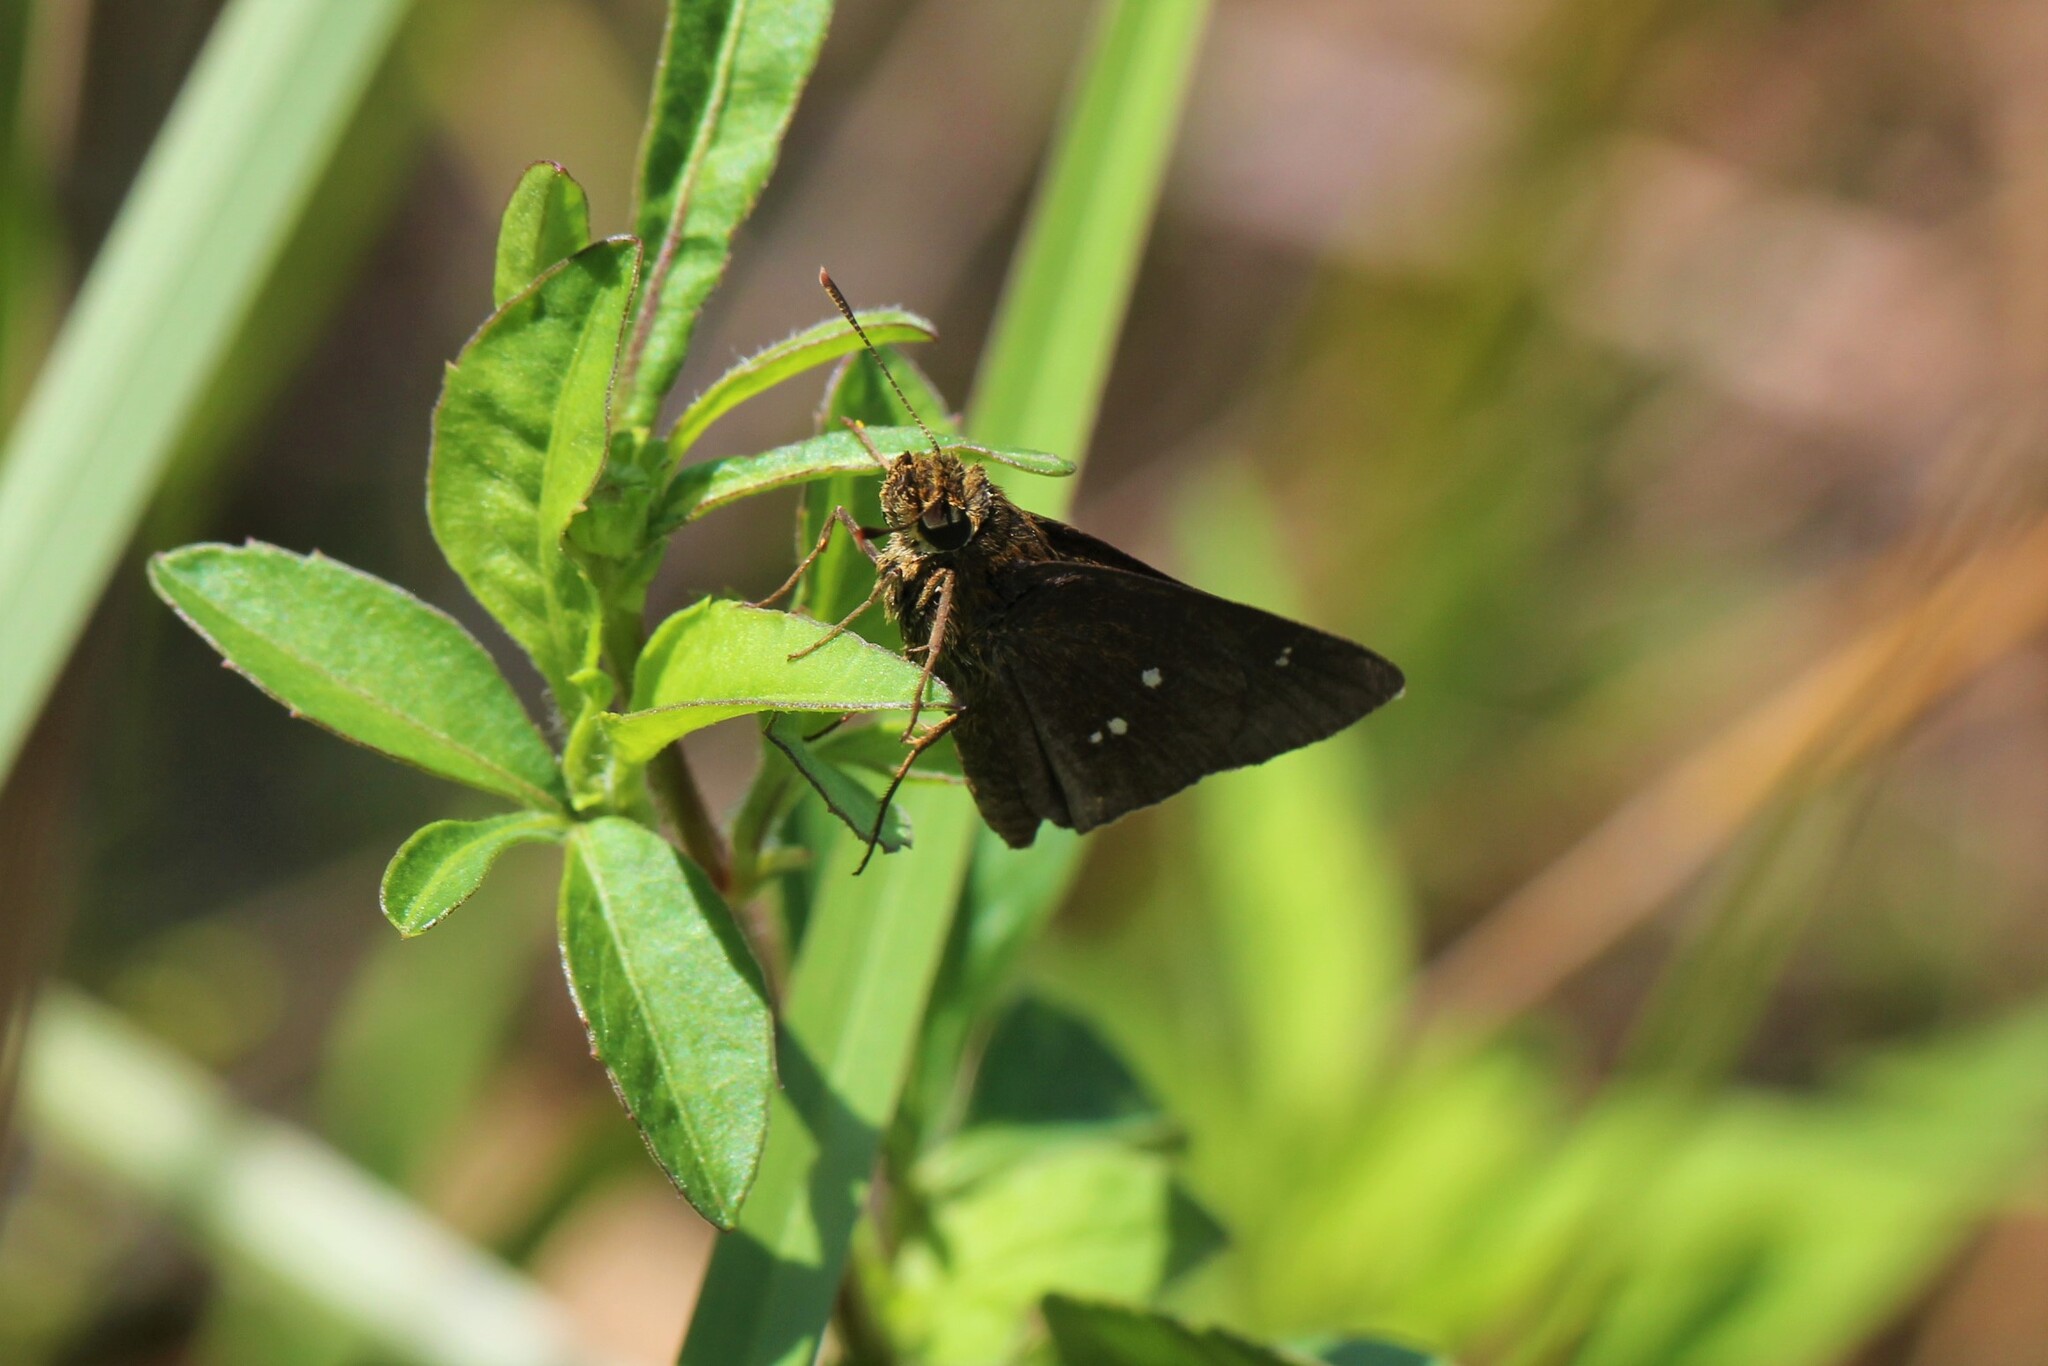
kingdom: Animalia
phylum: Arthropoda
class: Insecta
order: Lepidoptera
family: Hesperiidae
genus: Oligoria
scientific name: Oligoria maculata
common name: Twin-spot skipper
